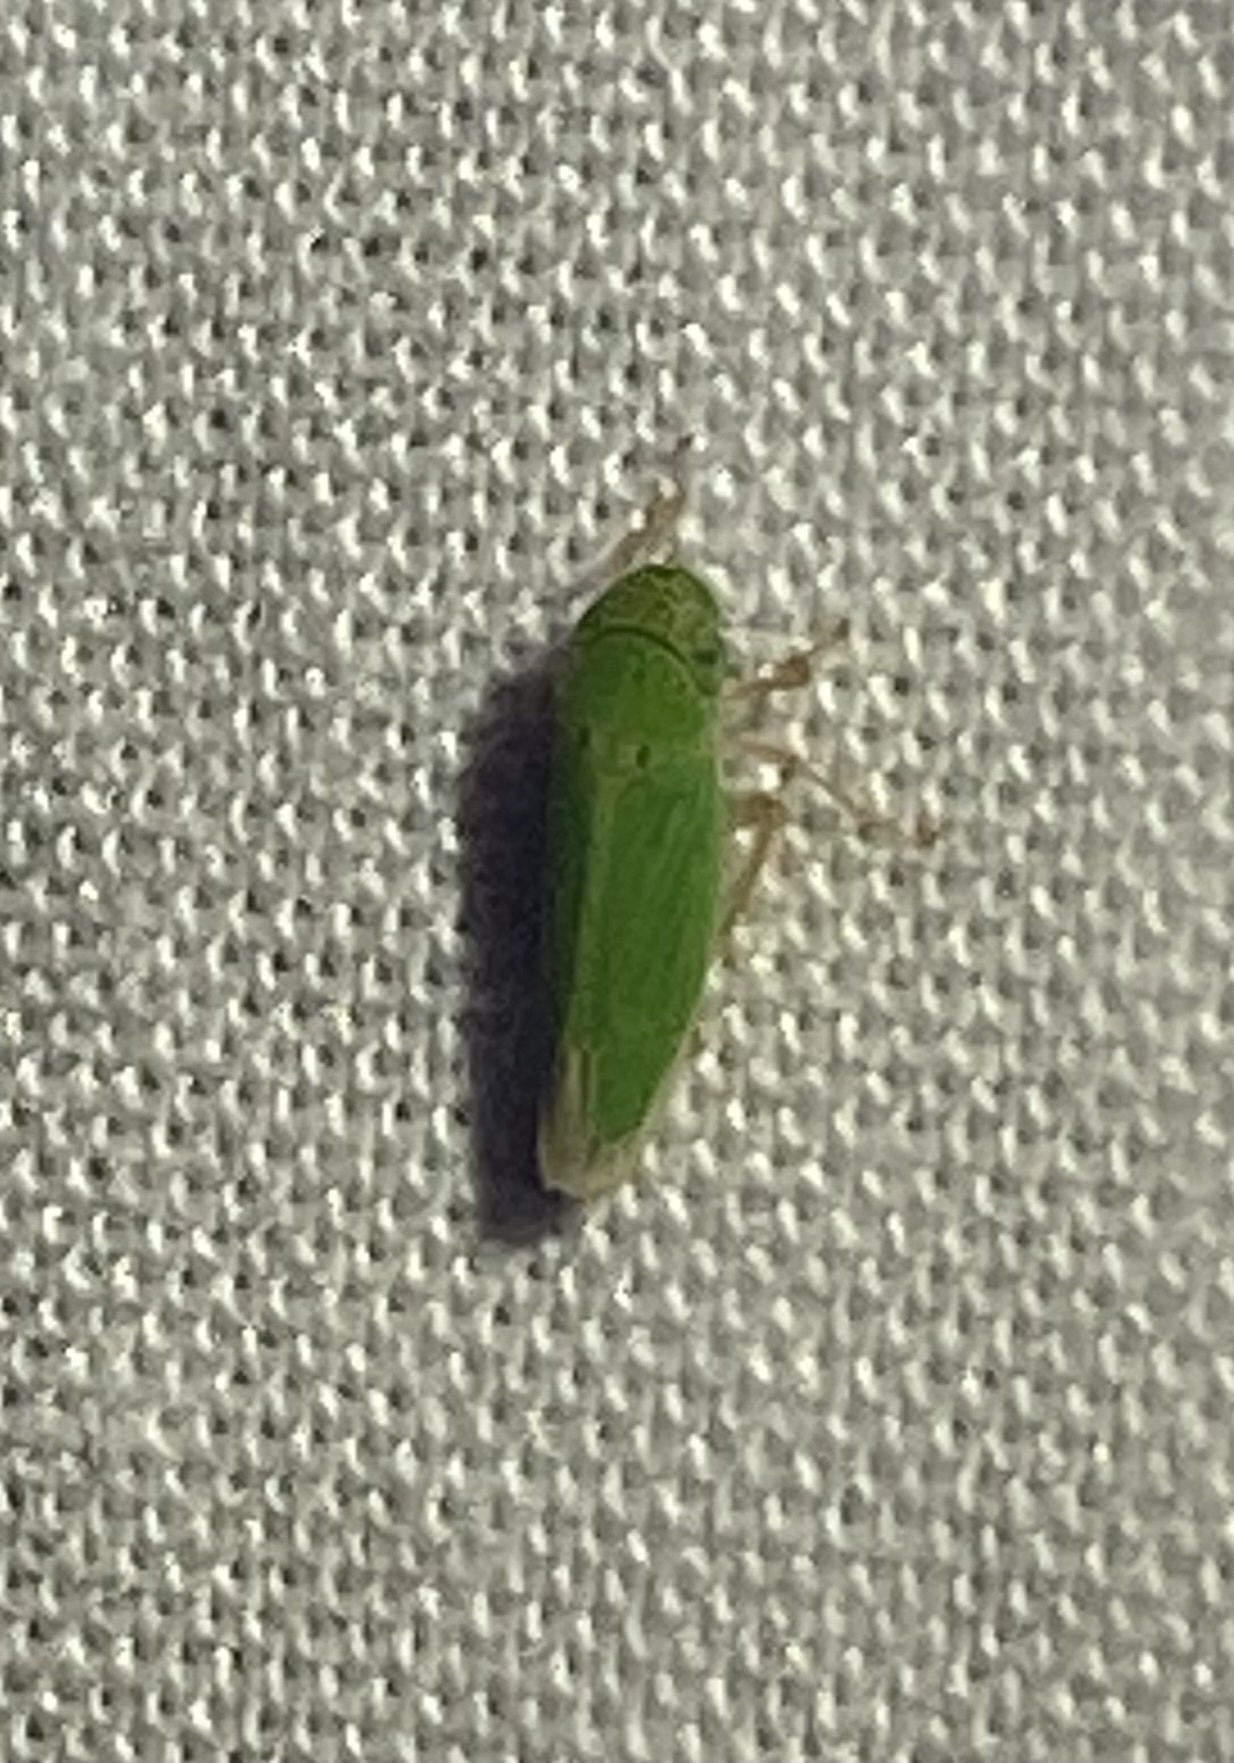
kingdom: Animalia
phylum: Arthropoda
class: Insecta
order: Hemiptera
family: Cicadellidae
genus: Hortensia
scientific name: Hortensia similis
